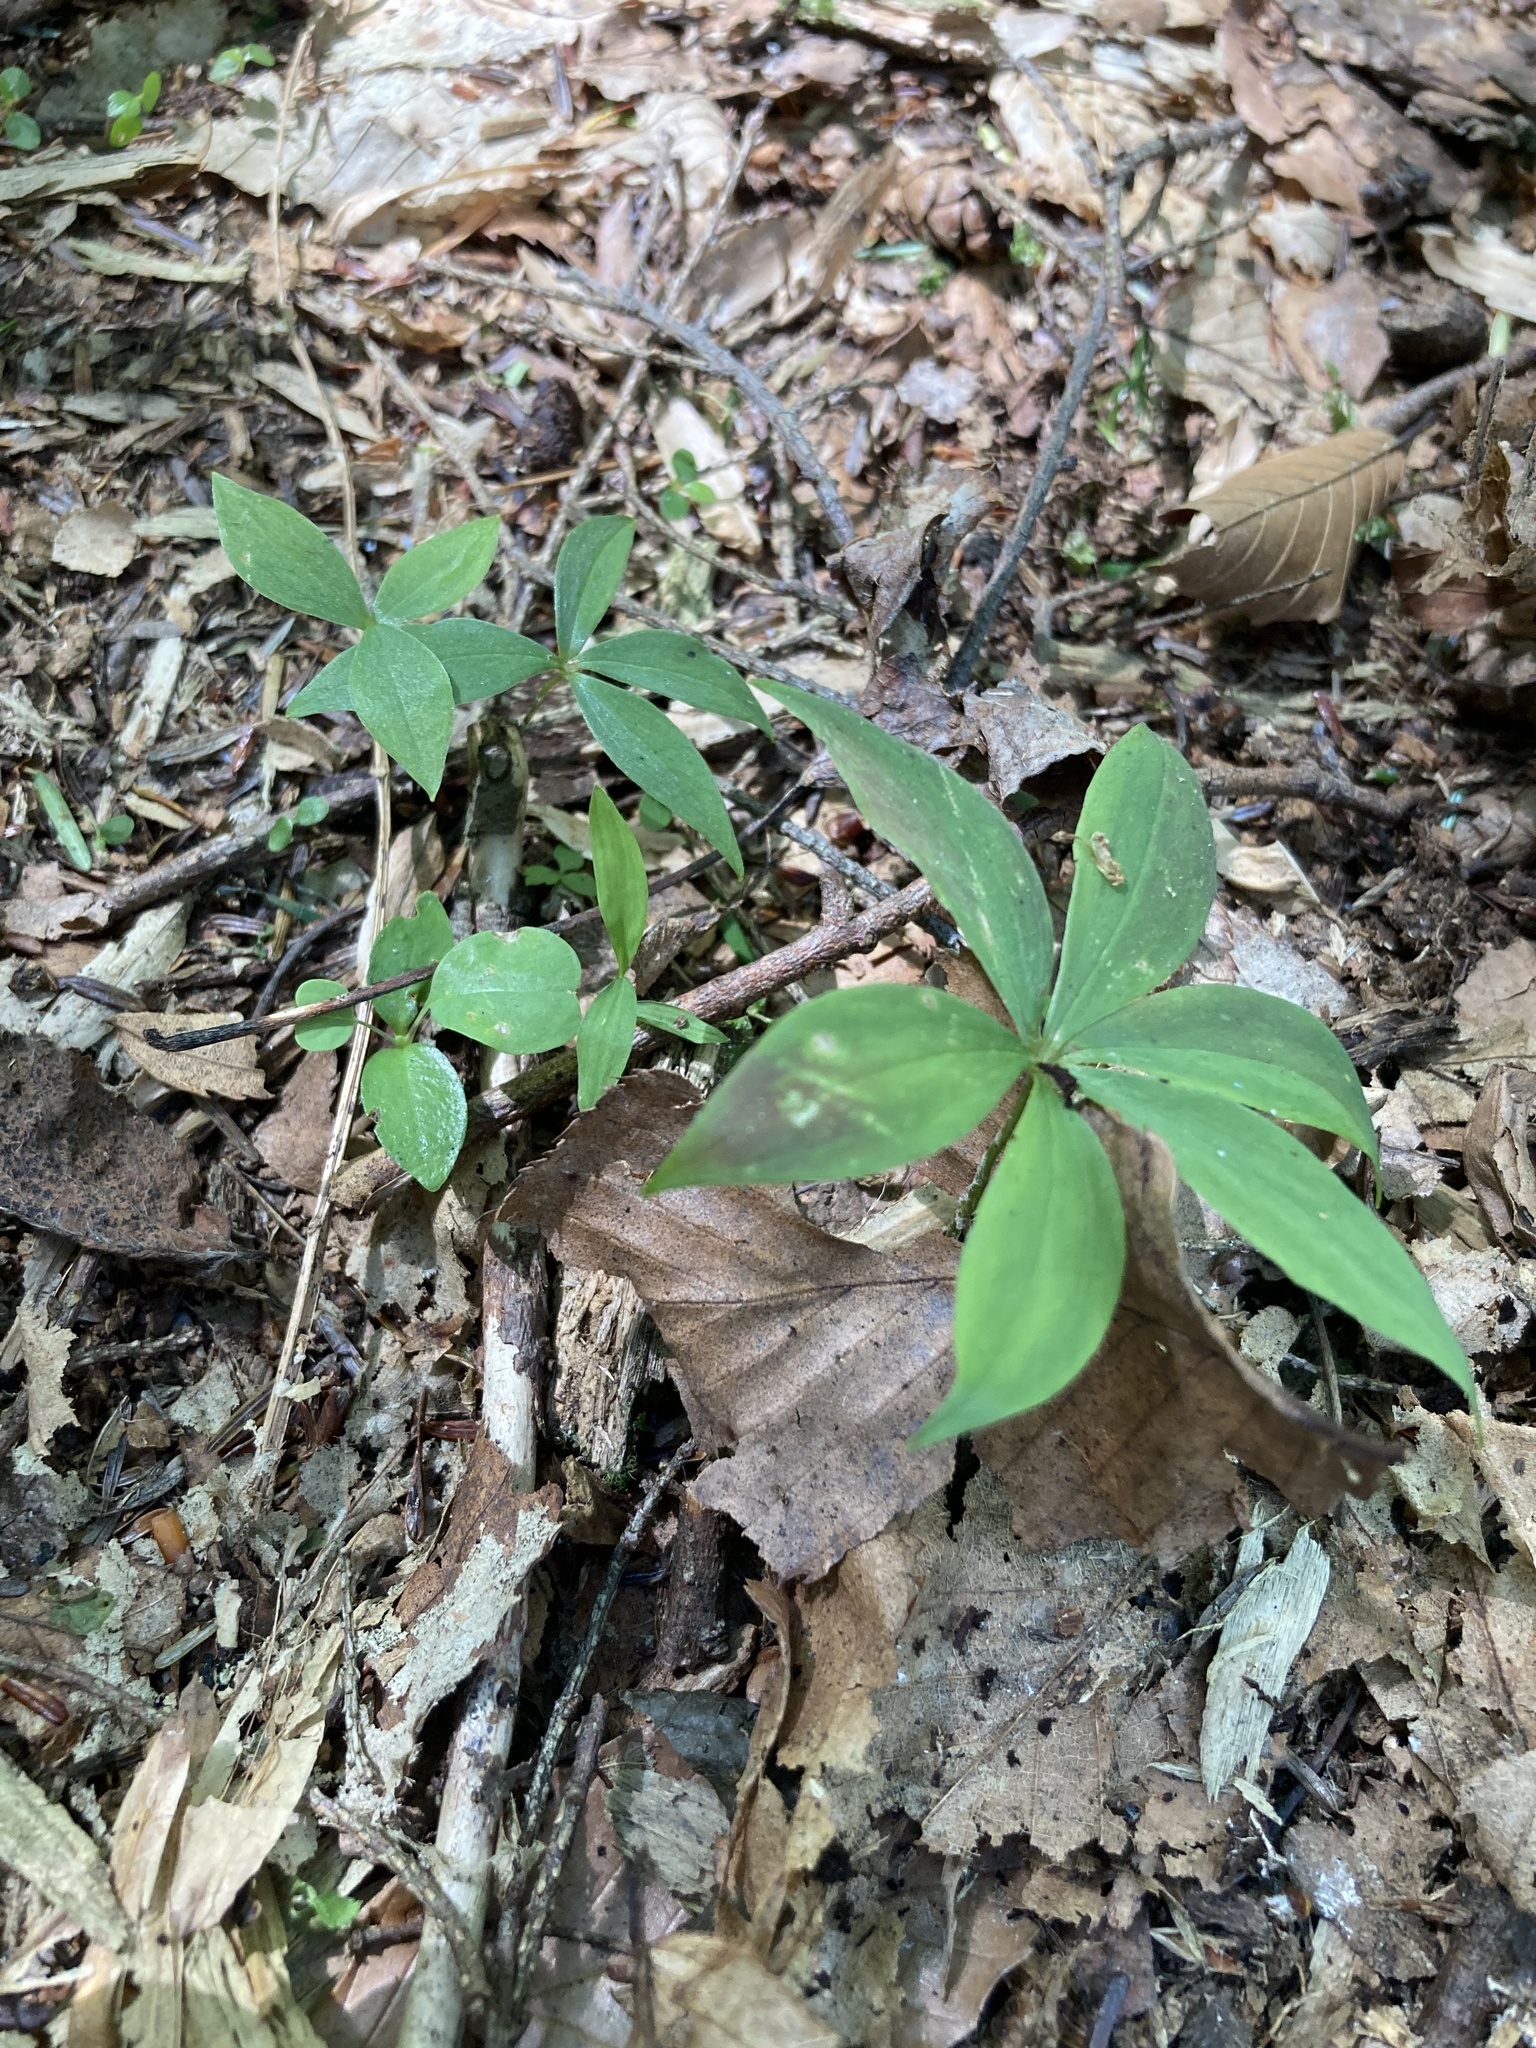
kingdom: Plantae
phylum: Tracheophyta
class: Liliopsida
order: Liliales
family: Liliaceae
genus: Medeola
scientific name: Medeola virginiana
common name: Indian cucumber-root
